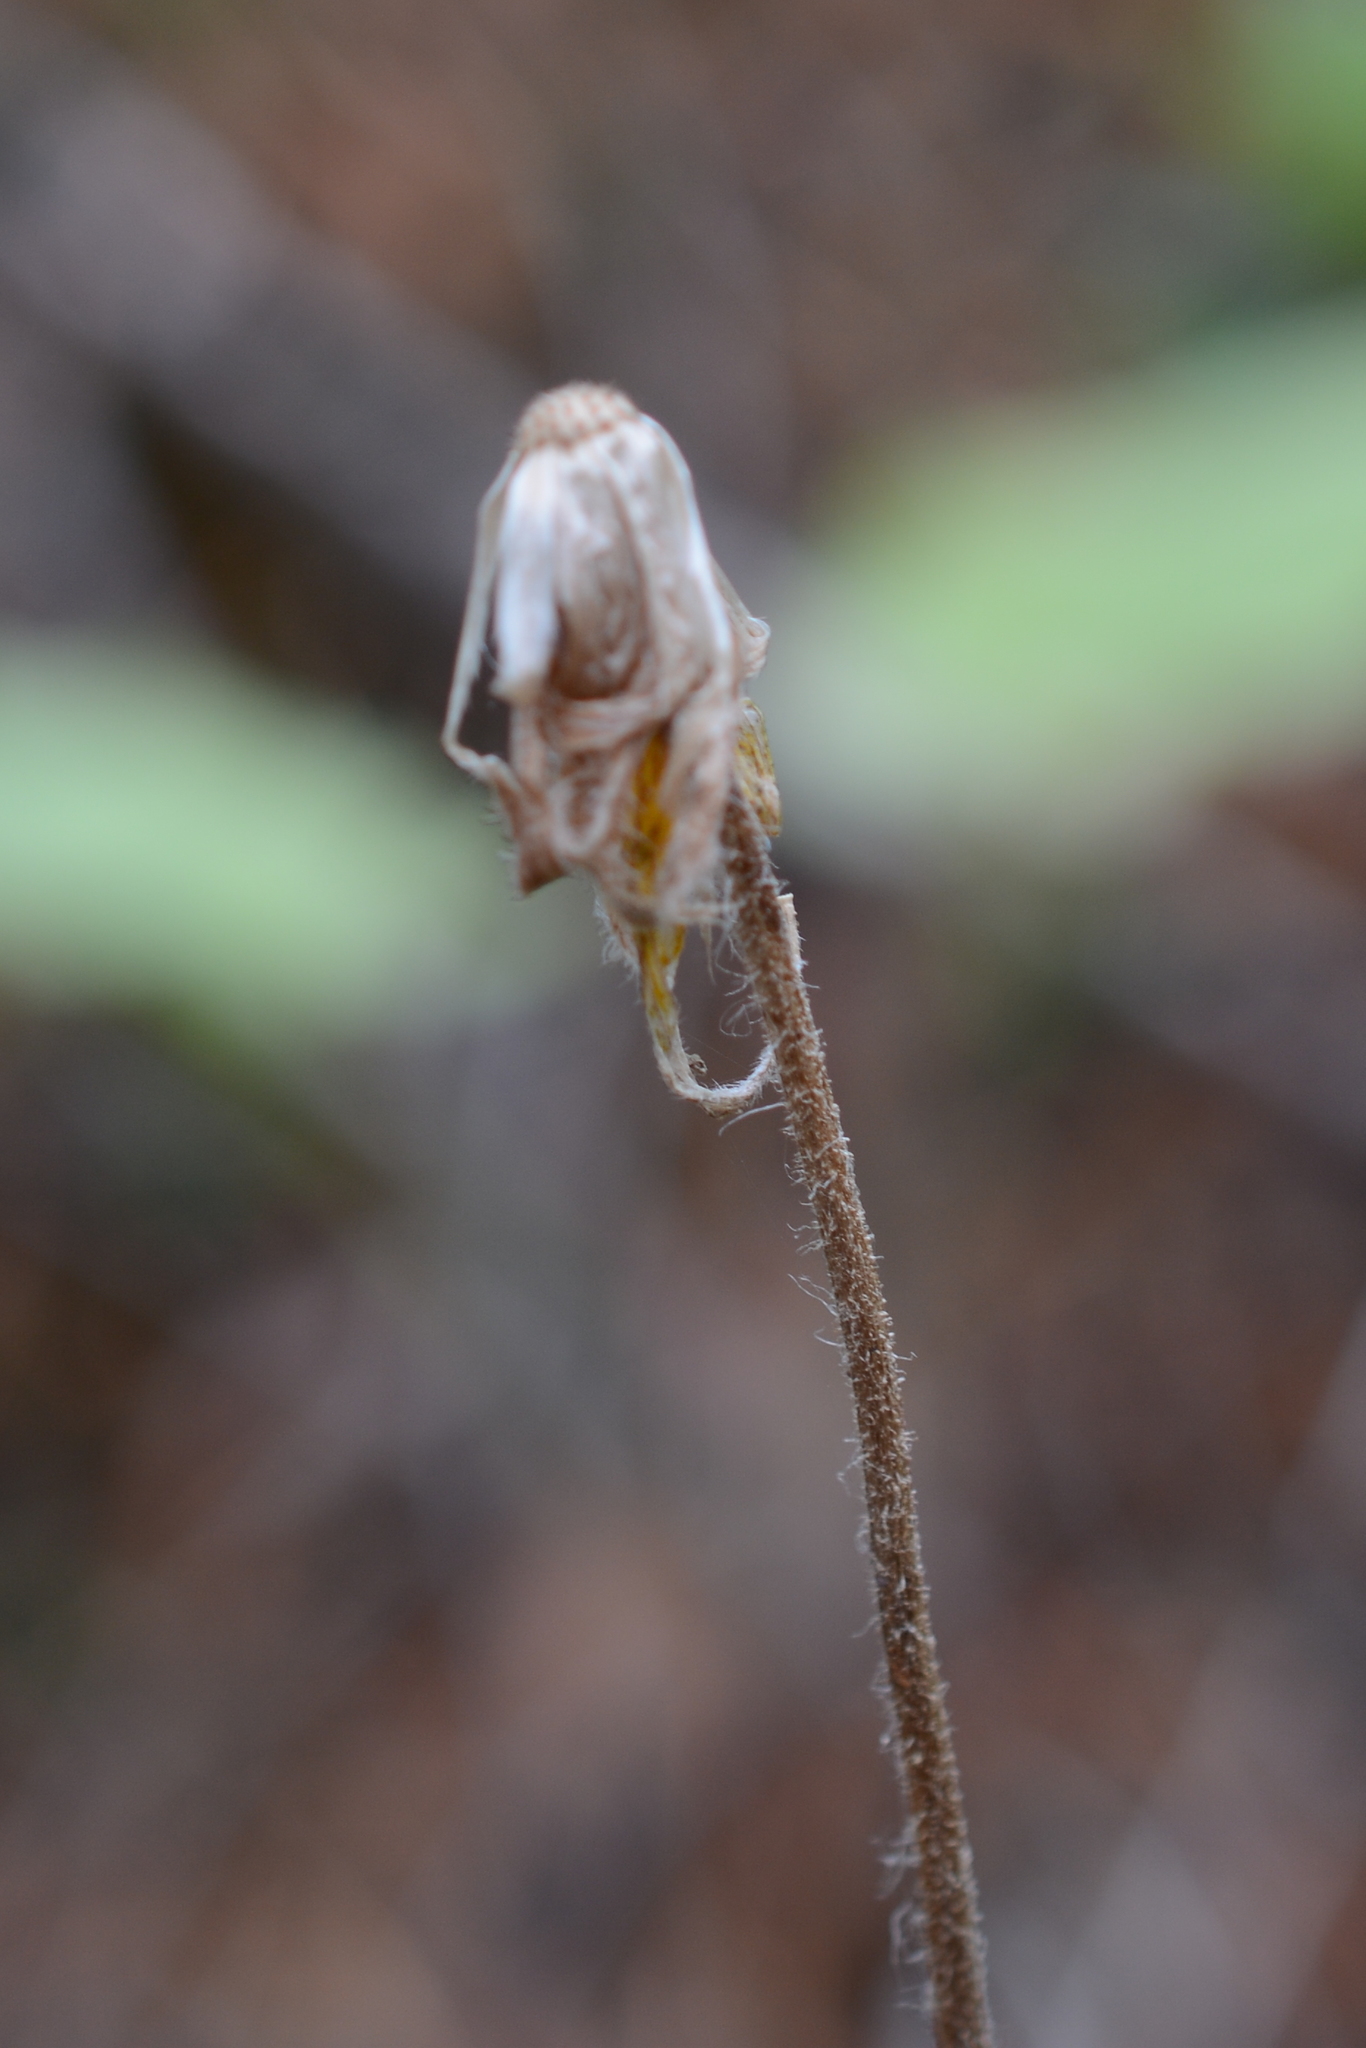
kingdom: Plantae
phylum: Tracheophyta
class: Magnoliopsida
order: Asterales
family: Asteraceae
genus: Arnica
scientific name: Arnica cordifolia
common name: Heart-leaf arnica
